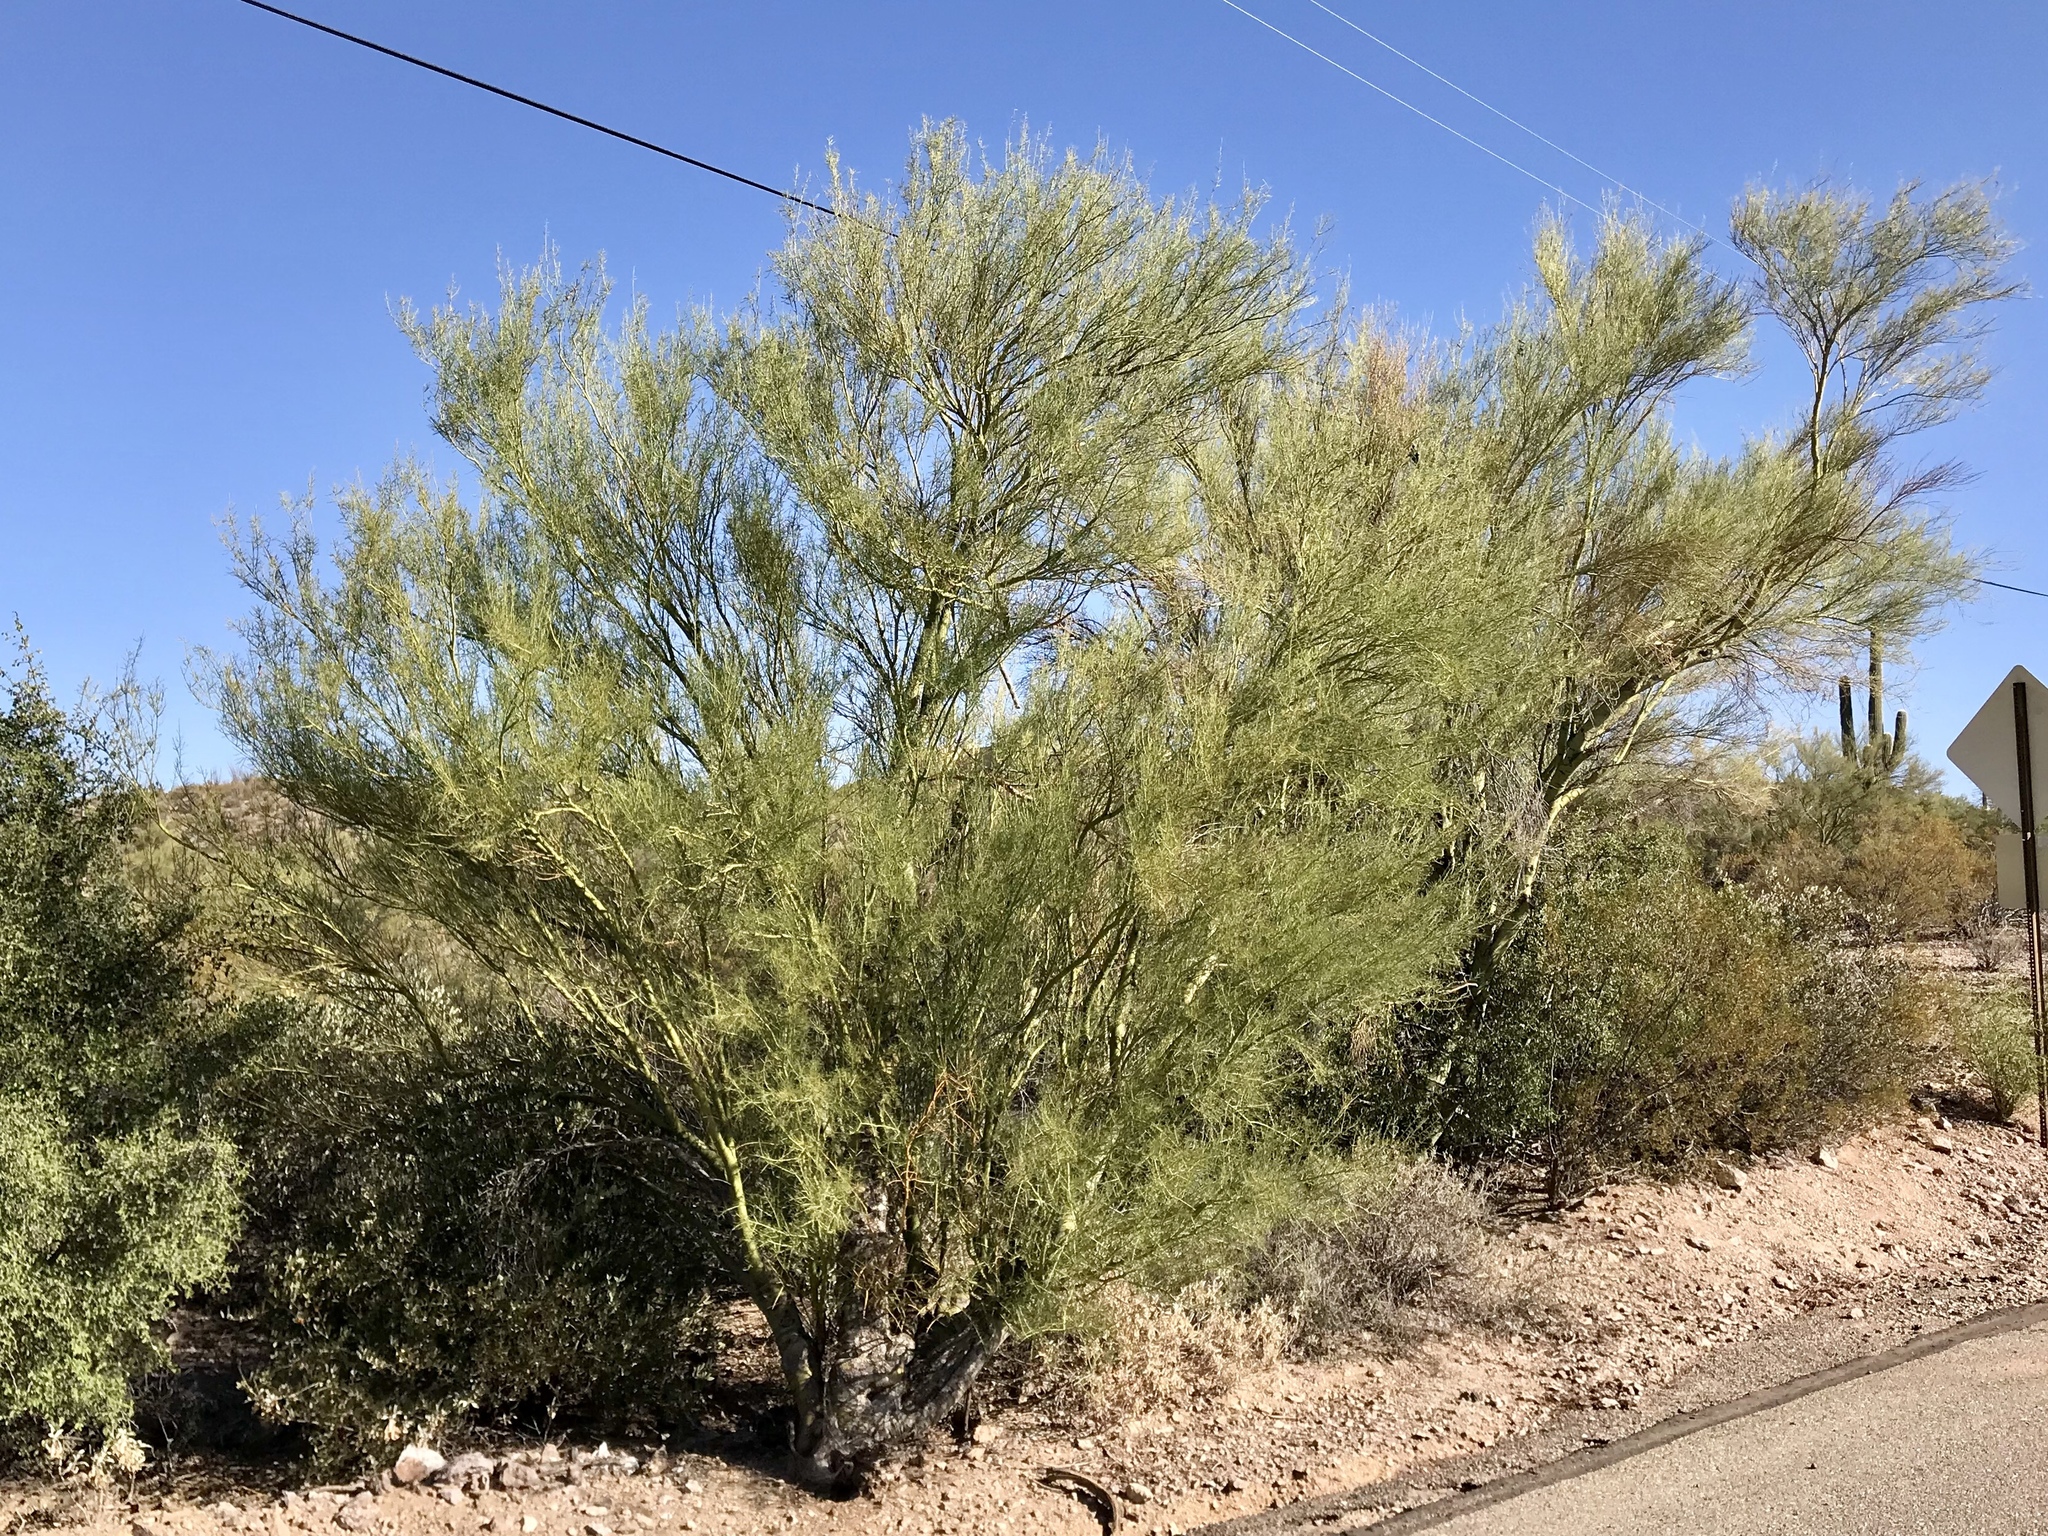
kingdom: Plantae
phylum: Tracheophyta
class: Magnoliopsida
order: Fabales
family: Fabaceae
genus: Parkinsonia
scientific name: Parkinsonia microphylla
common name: Yellow paloverde
